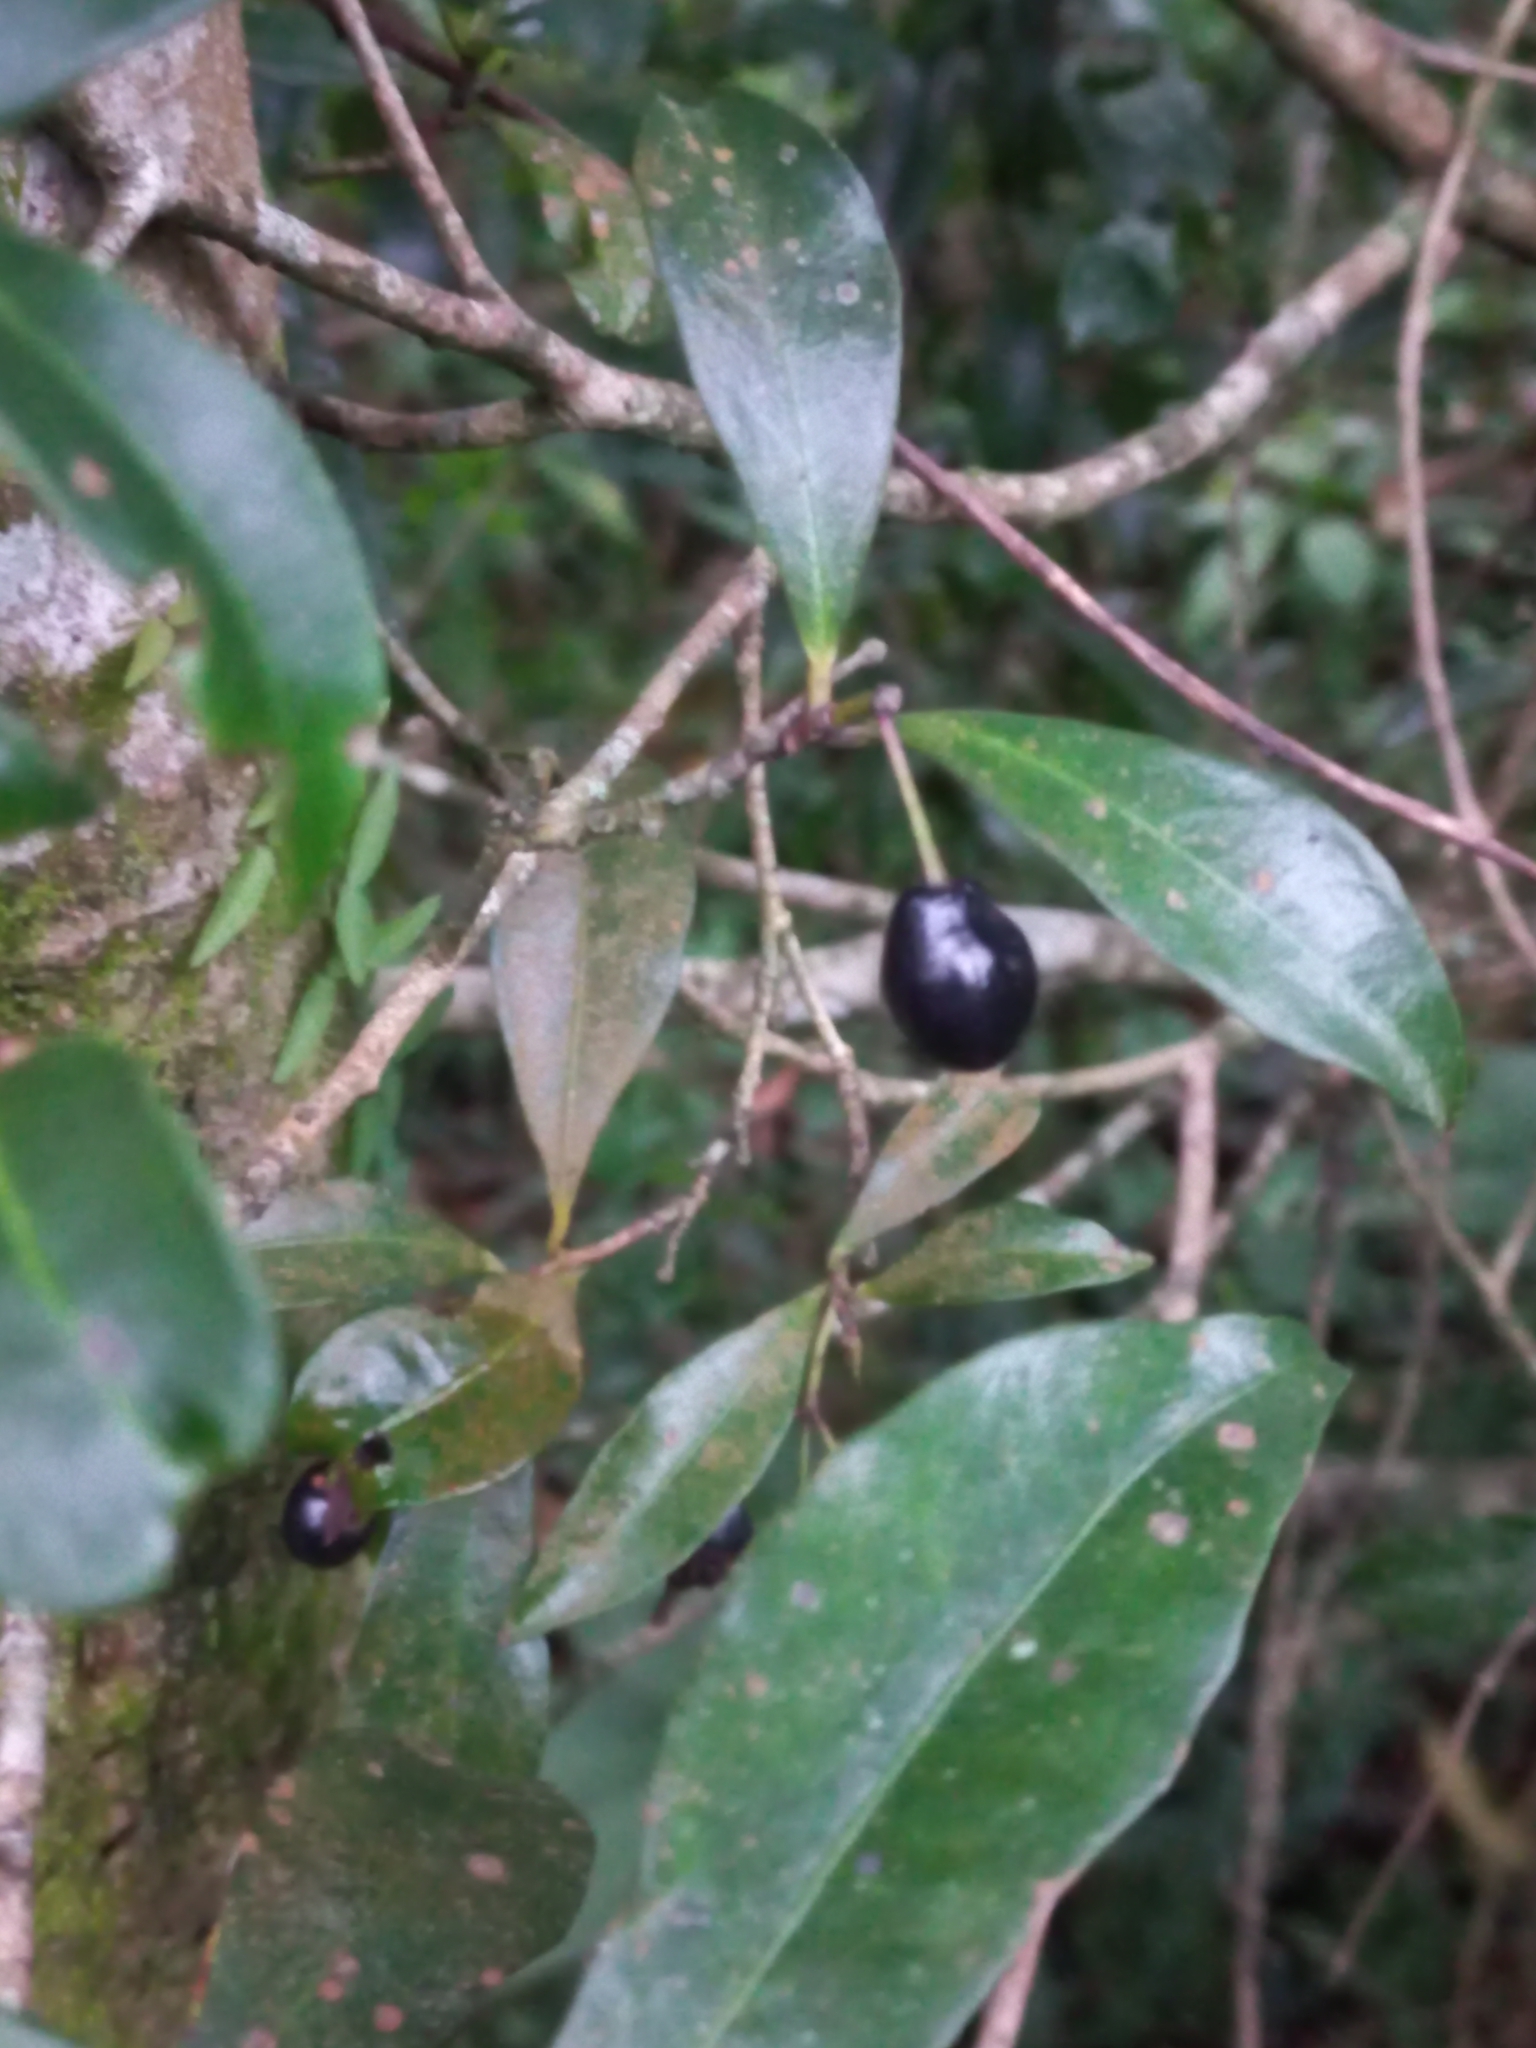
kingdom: Plantae
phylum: Tracheophyta
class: Magnoliopsida
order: Malvales
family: Thymelaeaceae
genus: Peddiea
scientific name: Peddiea africana
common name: Poison olive
